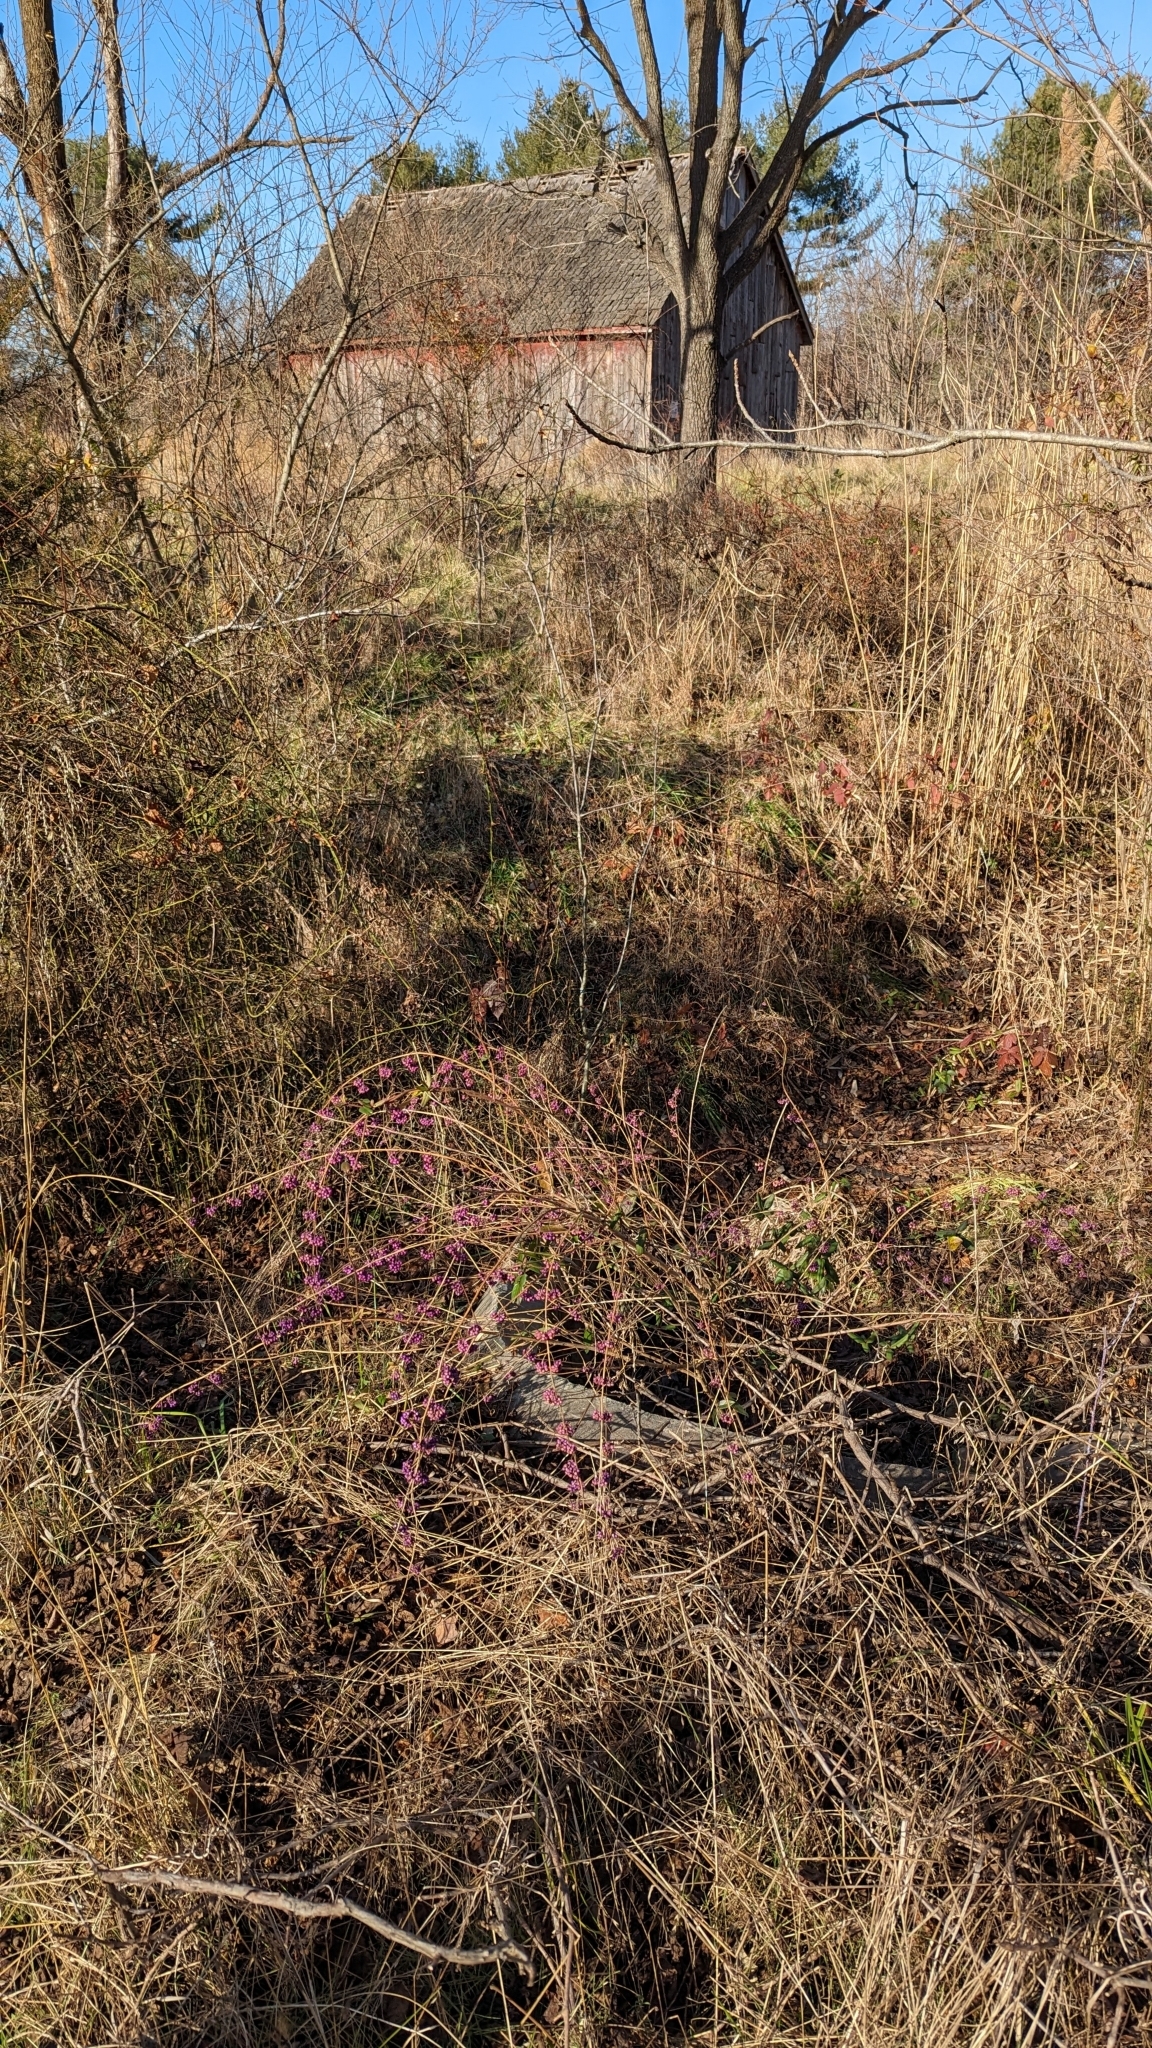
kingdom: Plantae
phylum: Tracheophyta
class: Magnoliopsida
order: Lamiales
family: Lamiaceae
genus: Callicarpa
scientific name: Callicarpa dichotoma
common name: Purple beauty-berry
